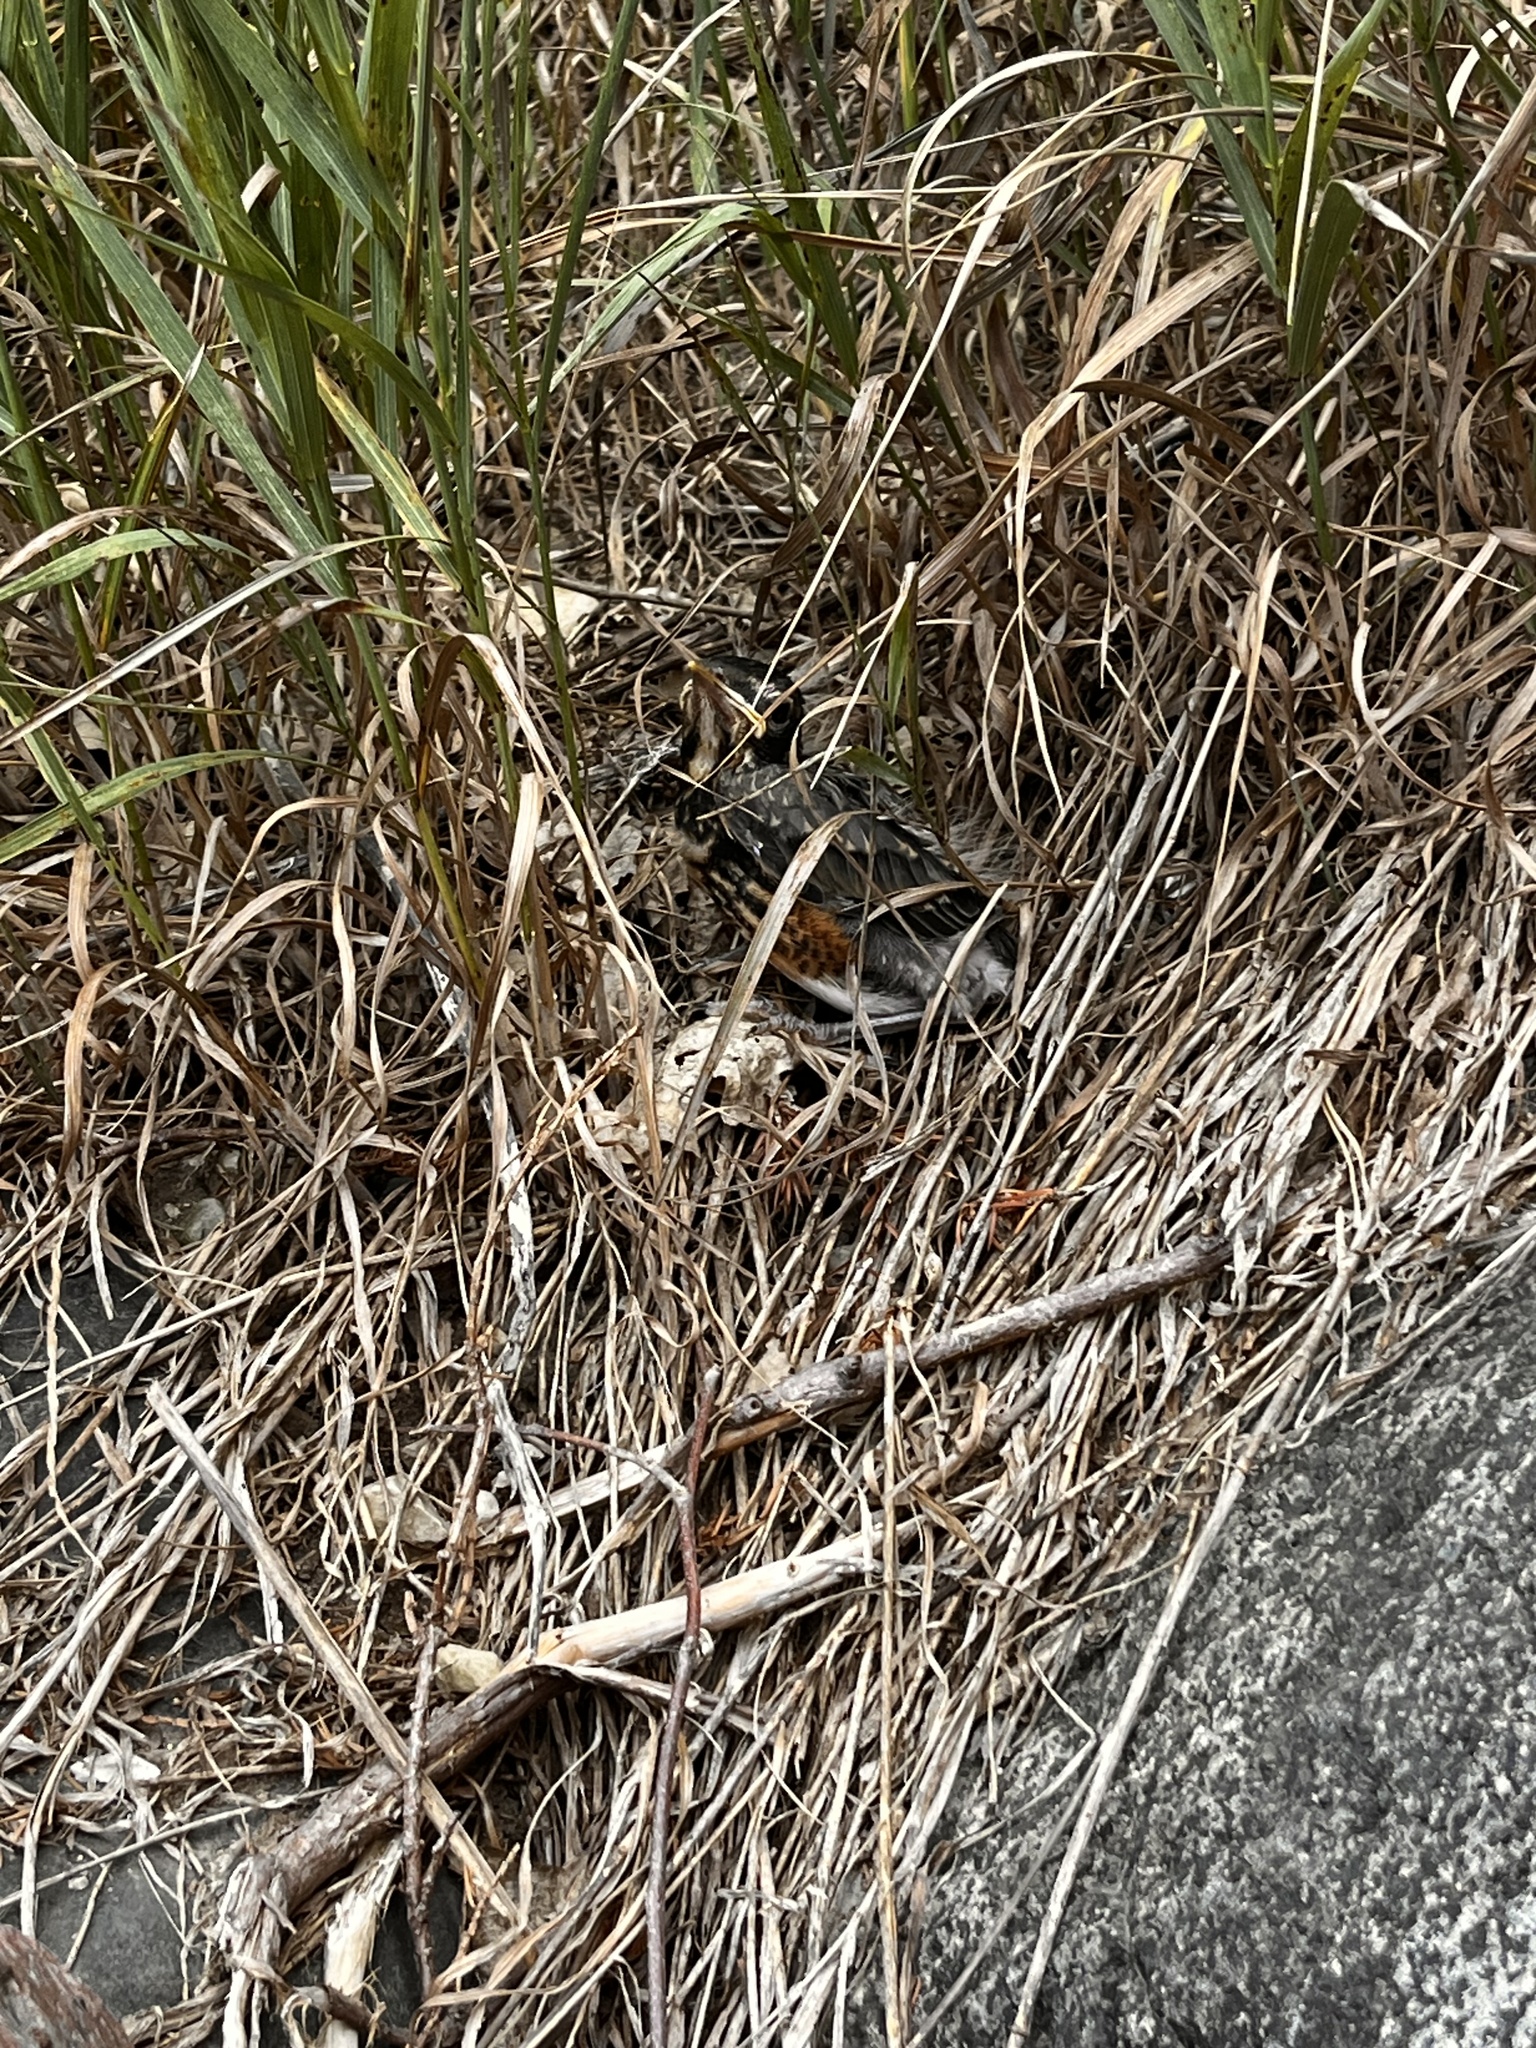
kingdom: Animalia
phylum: Chordata
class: Aves
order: Passeriformes
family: Turdidae
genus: Turdus
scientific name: Turdus migratorius
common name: American robin
